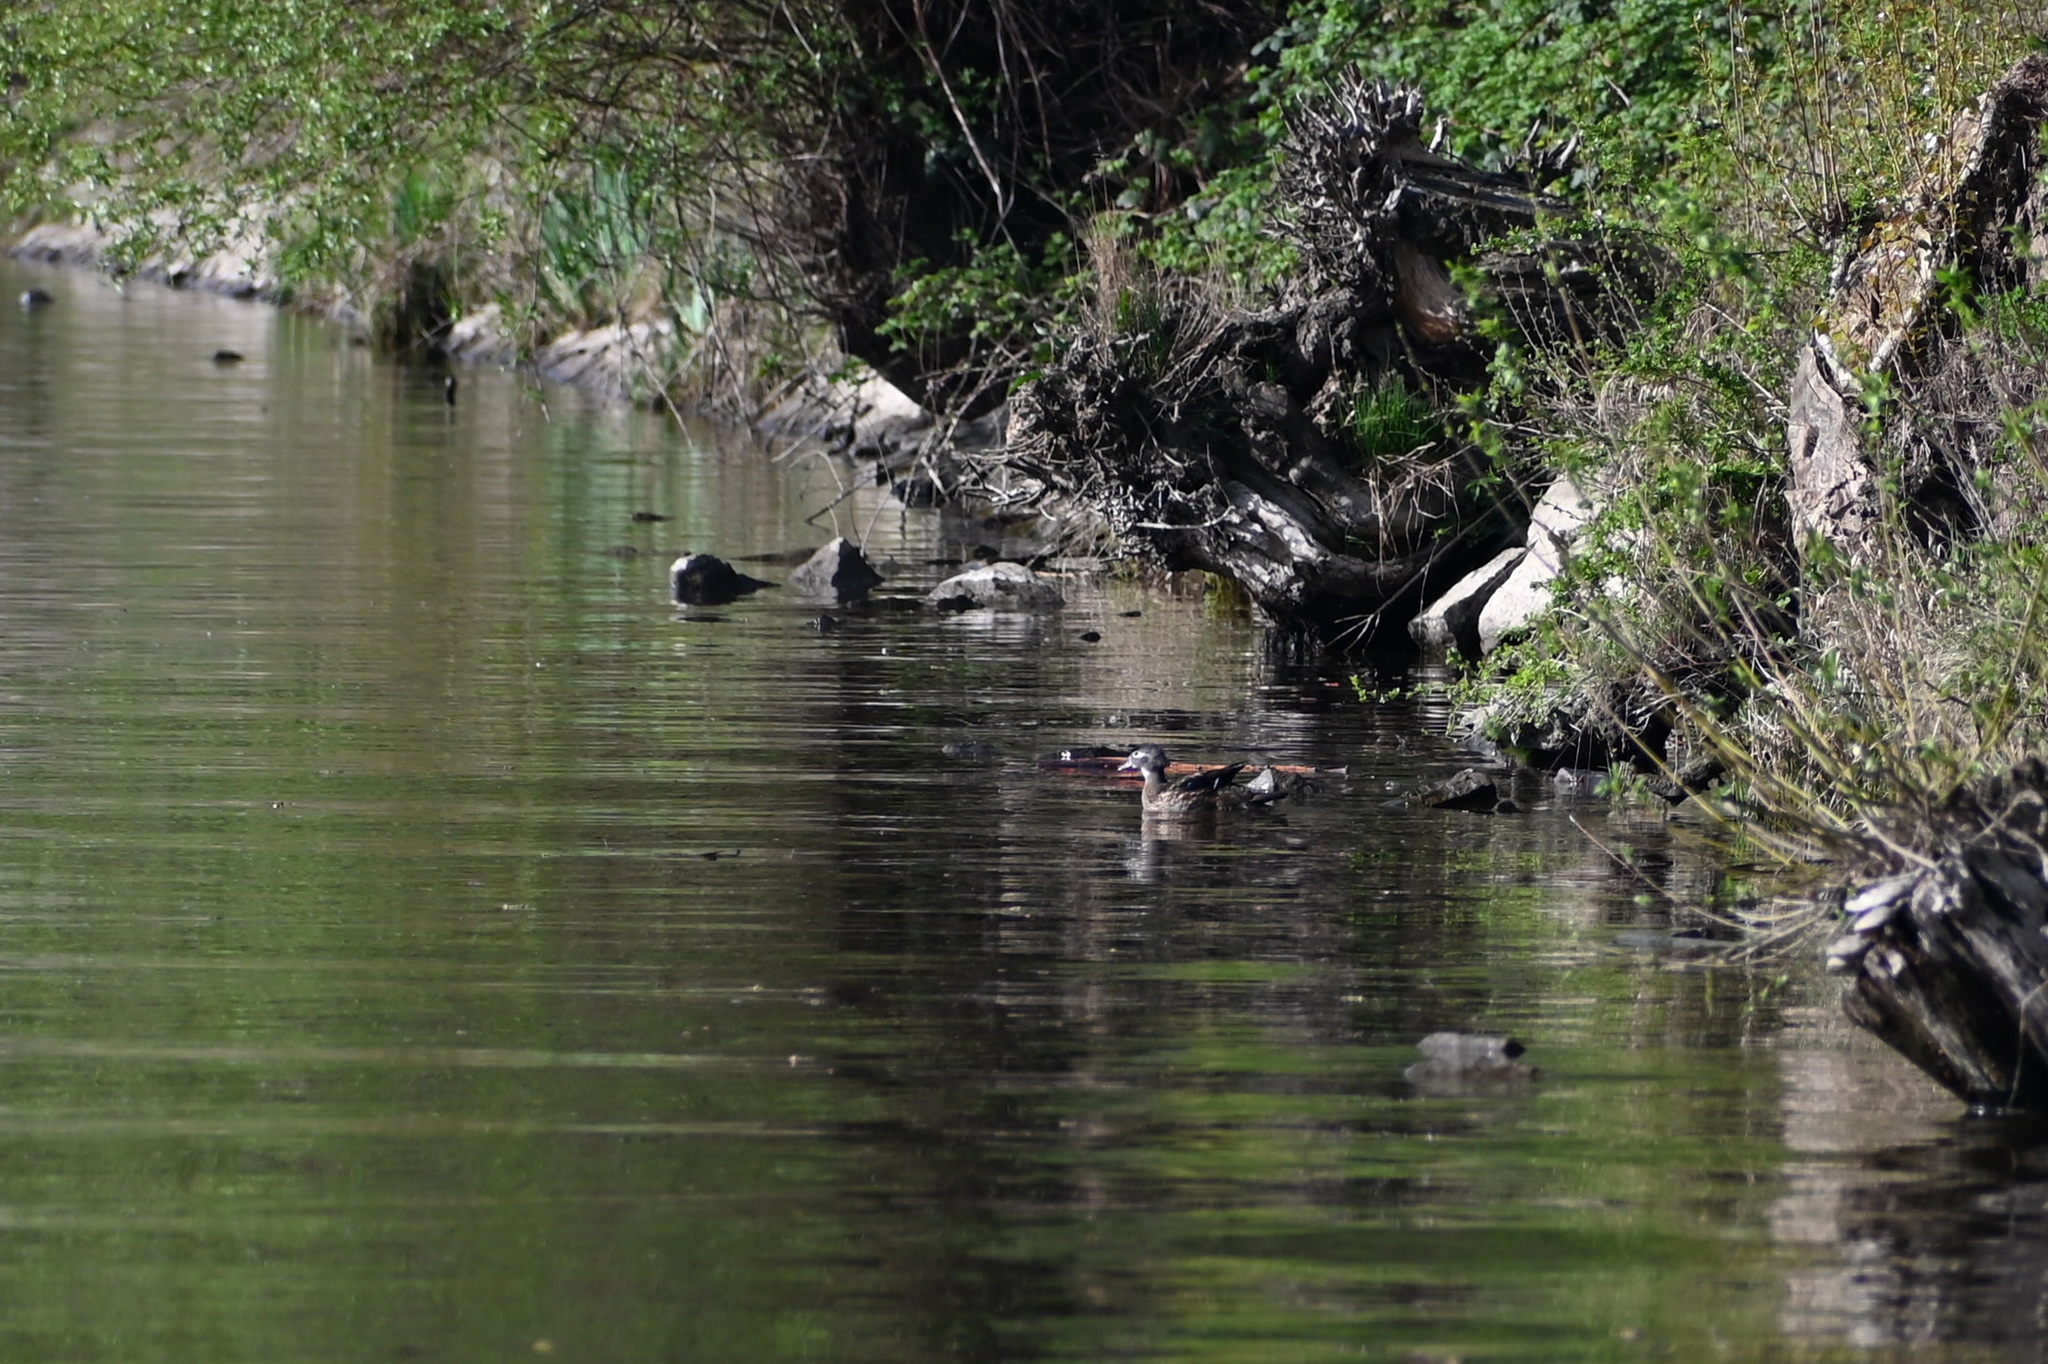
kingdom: Animalia
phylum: Chordata
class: Aves
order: Anseriformes
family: Anatidae
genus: Aix
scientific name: Aix sponsa
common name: Wood duck
